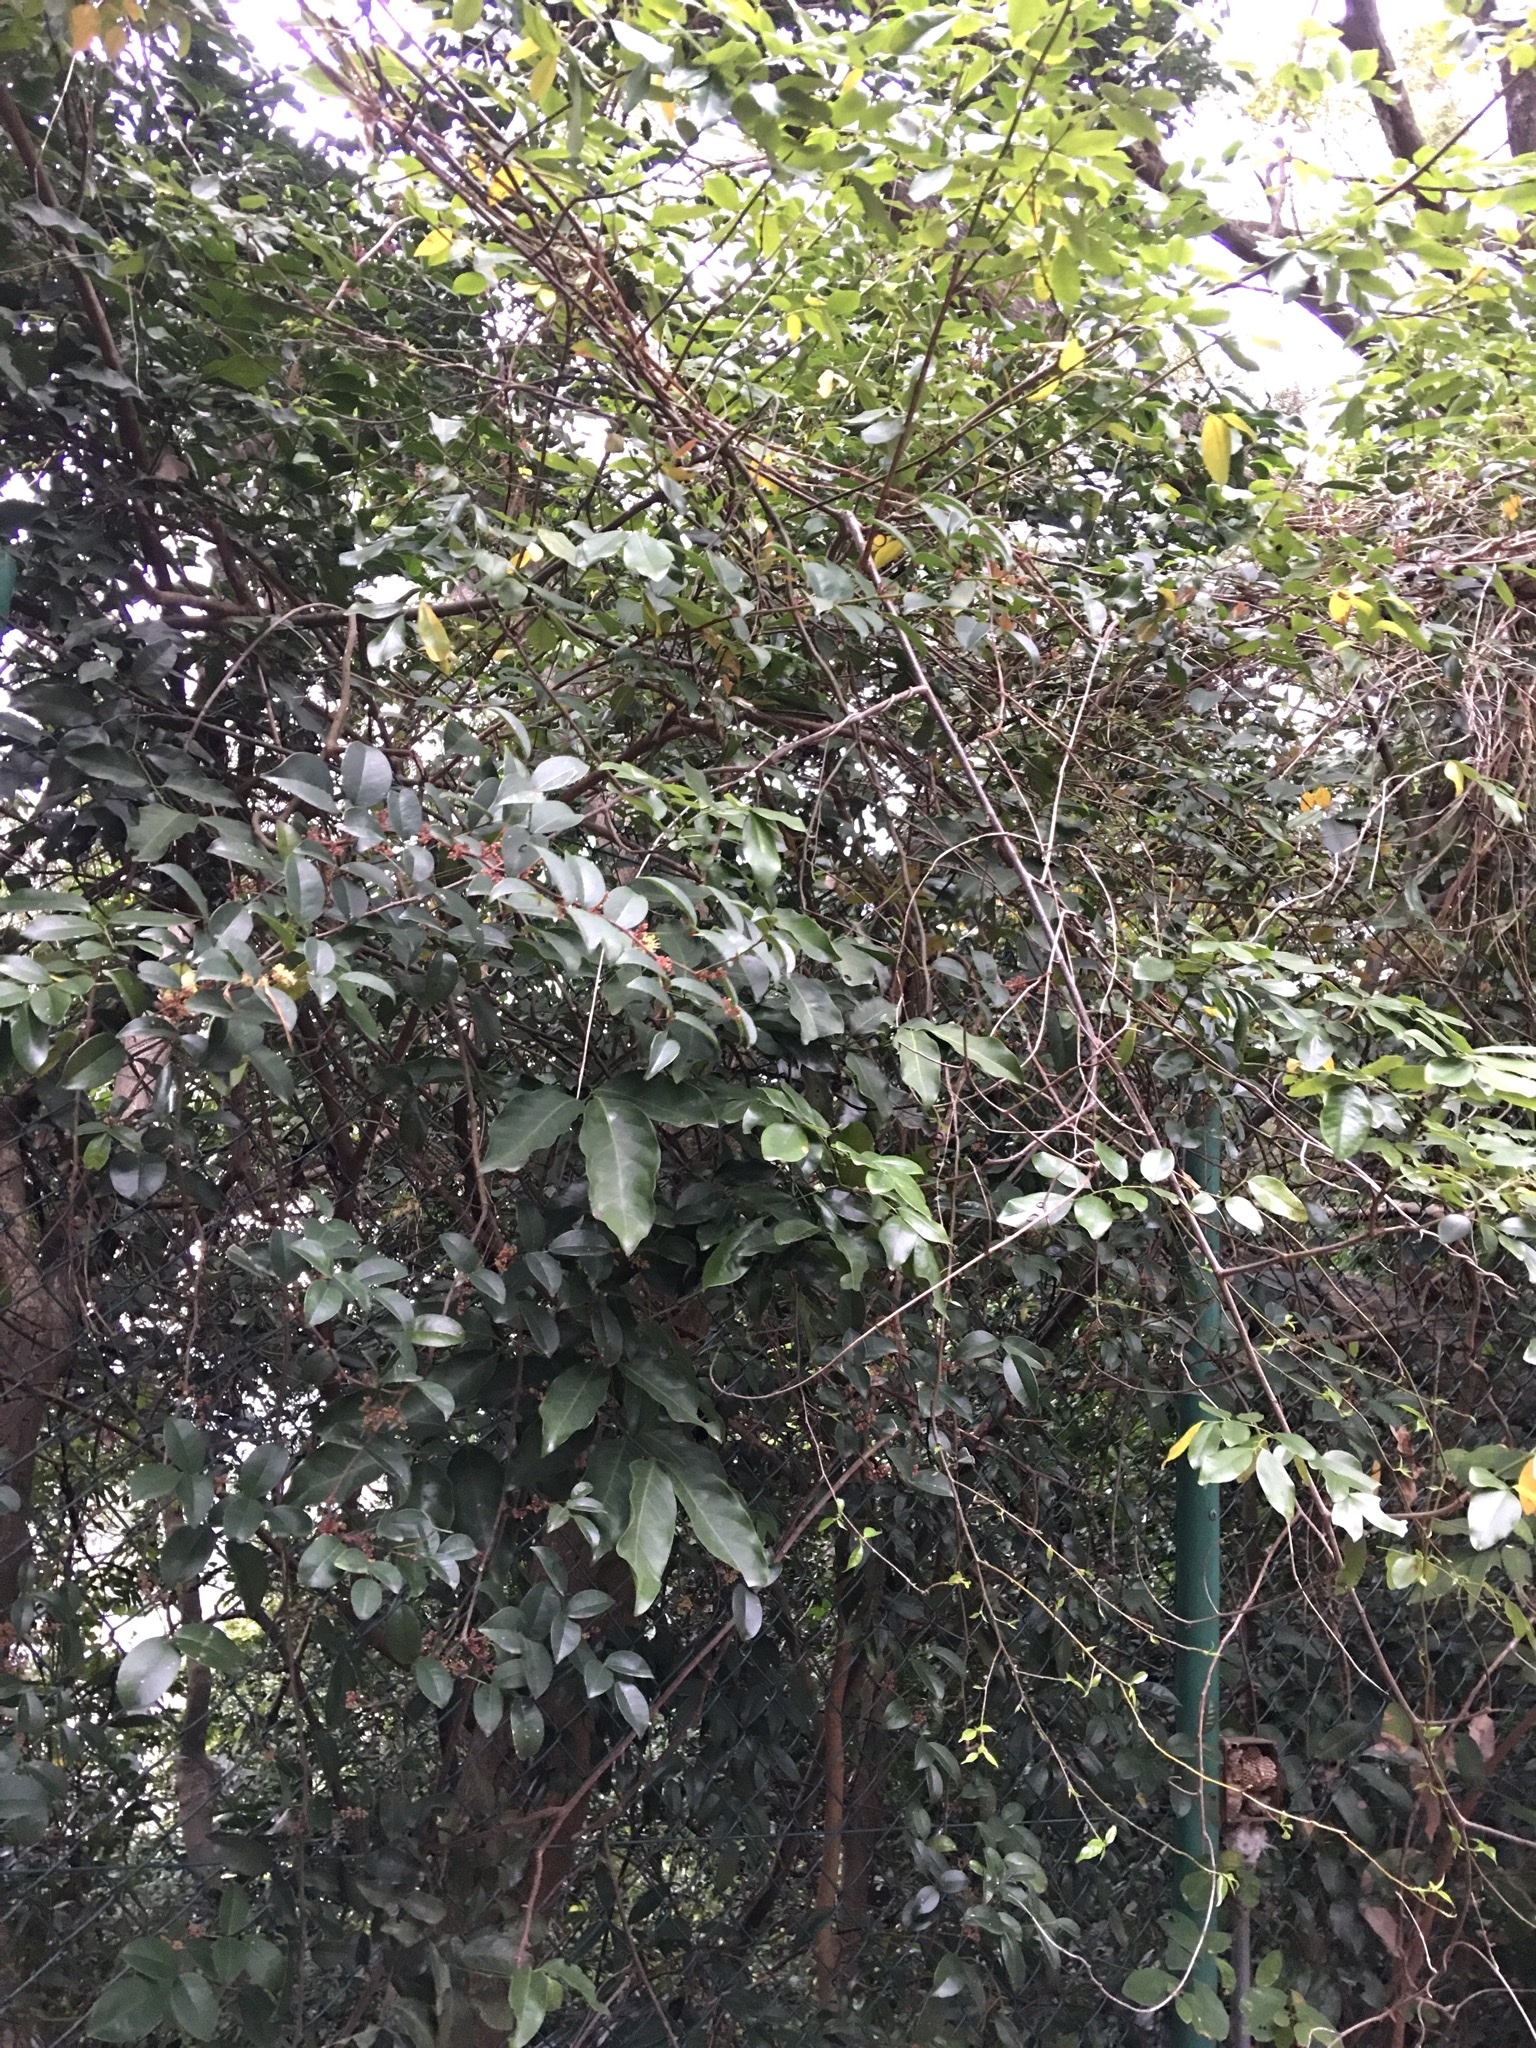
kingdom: Plantae
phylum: Tracheophyta
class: Magnoliopsida
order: Sapindales
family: Rutaceae
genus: Zanthoxylum
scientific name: Zanthoxylum nitidum
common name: Shiny-leaf prickly-ash
